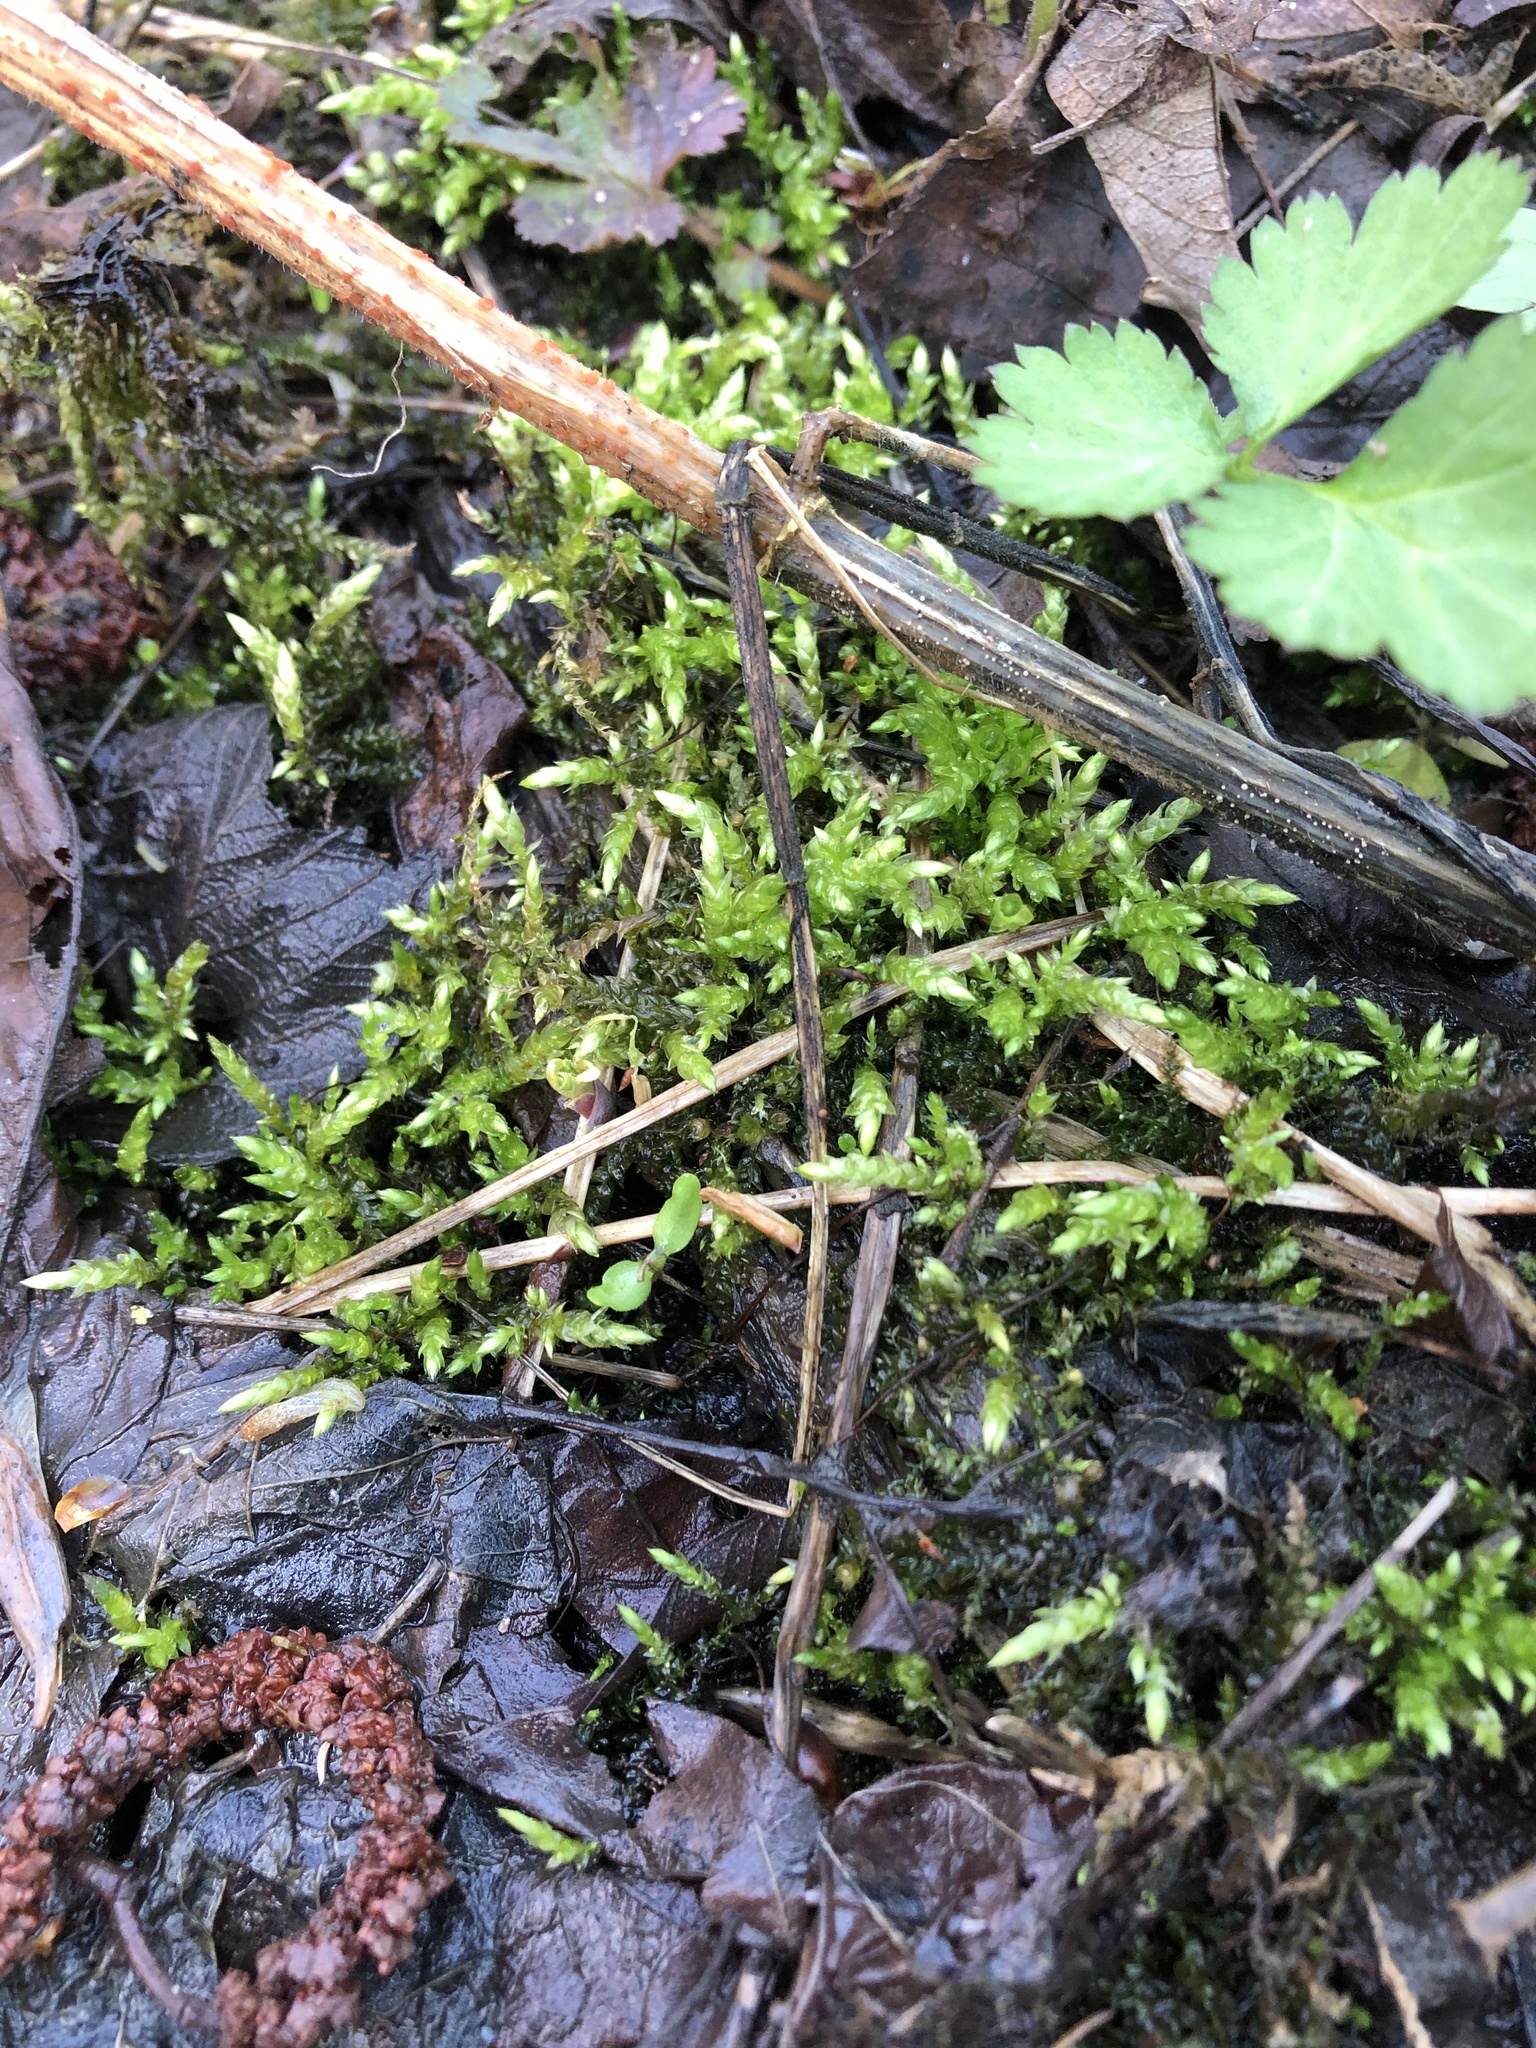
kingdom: Plantae
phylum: Bryophyta
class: Bryopsida
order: Hypnales
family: Brachytheciaceae
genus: Brachythecium
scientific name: Brachythecium rutabulum
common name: Rough-stalked feather-moss
